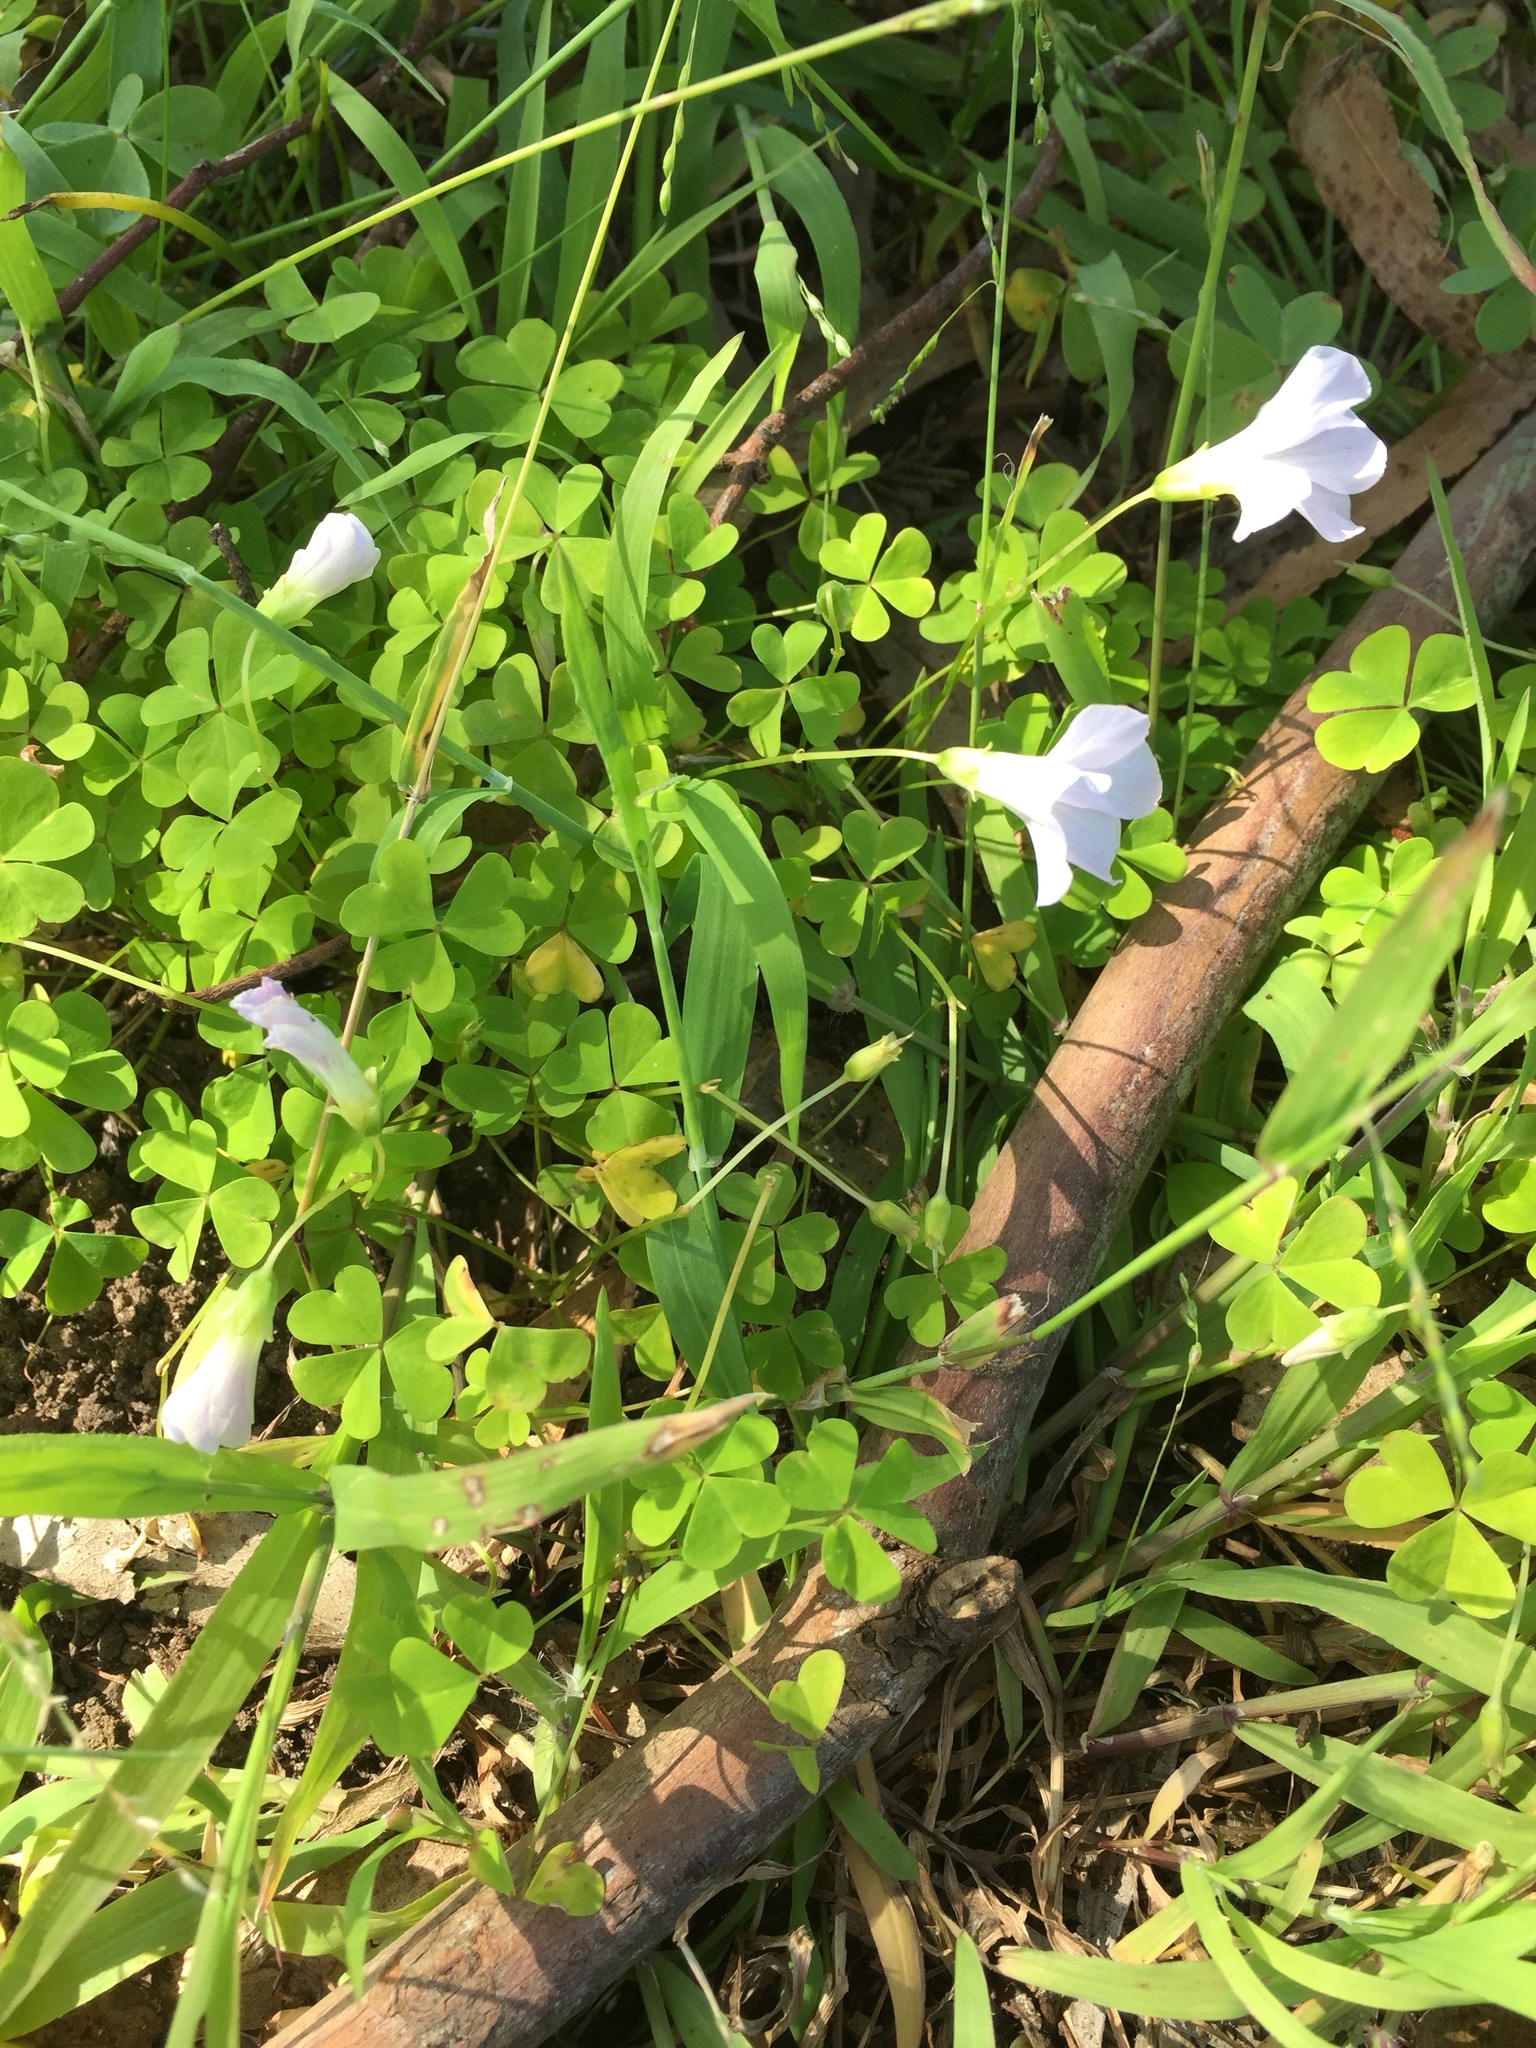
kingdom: Plantae
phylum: Tracheophyta
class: Magnoliopsida
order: Oxalidales
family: Oxalidaceae
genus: Oxalis
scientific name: Oxalis incarnata
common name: Pale pink-sorrel
